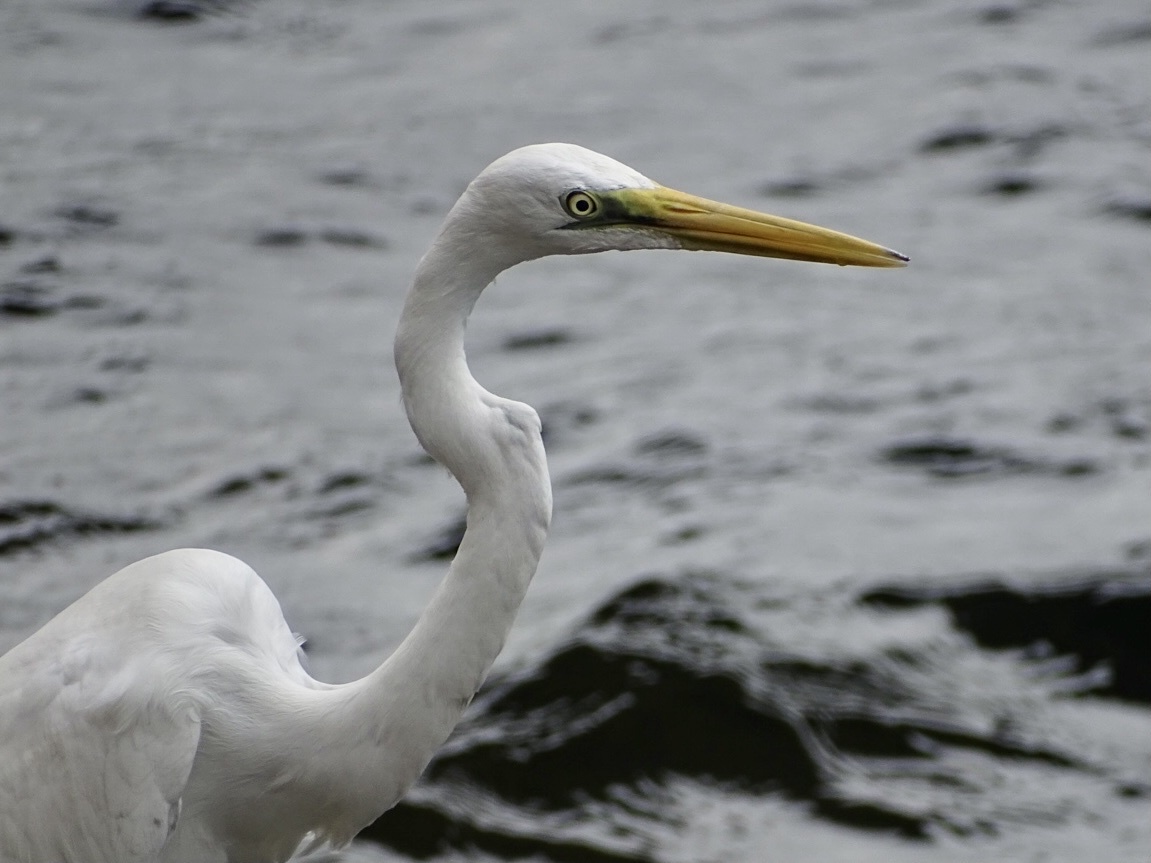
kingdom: Animalia
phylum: Chordata
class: Aves
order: Pelecaniformes
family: Ardeidae
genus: Ardea
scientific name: Ardea alba
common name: Great egret
